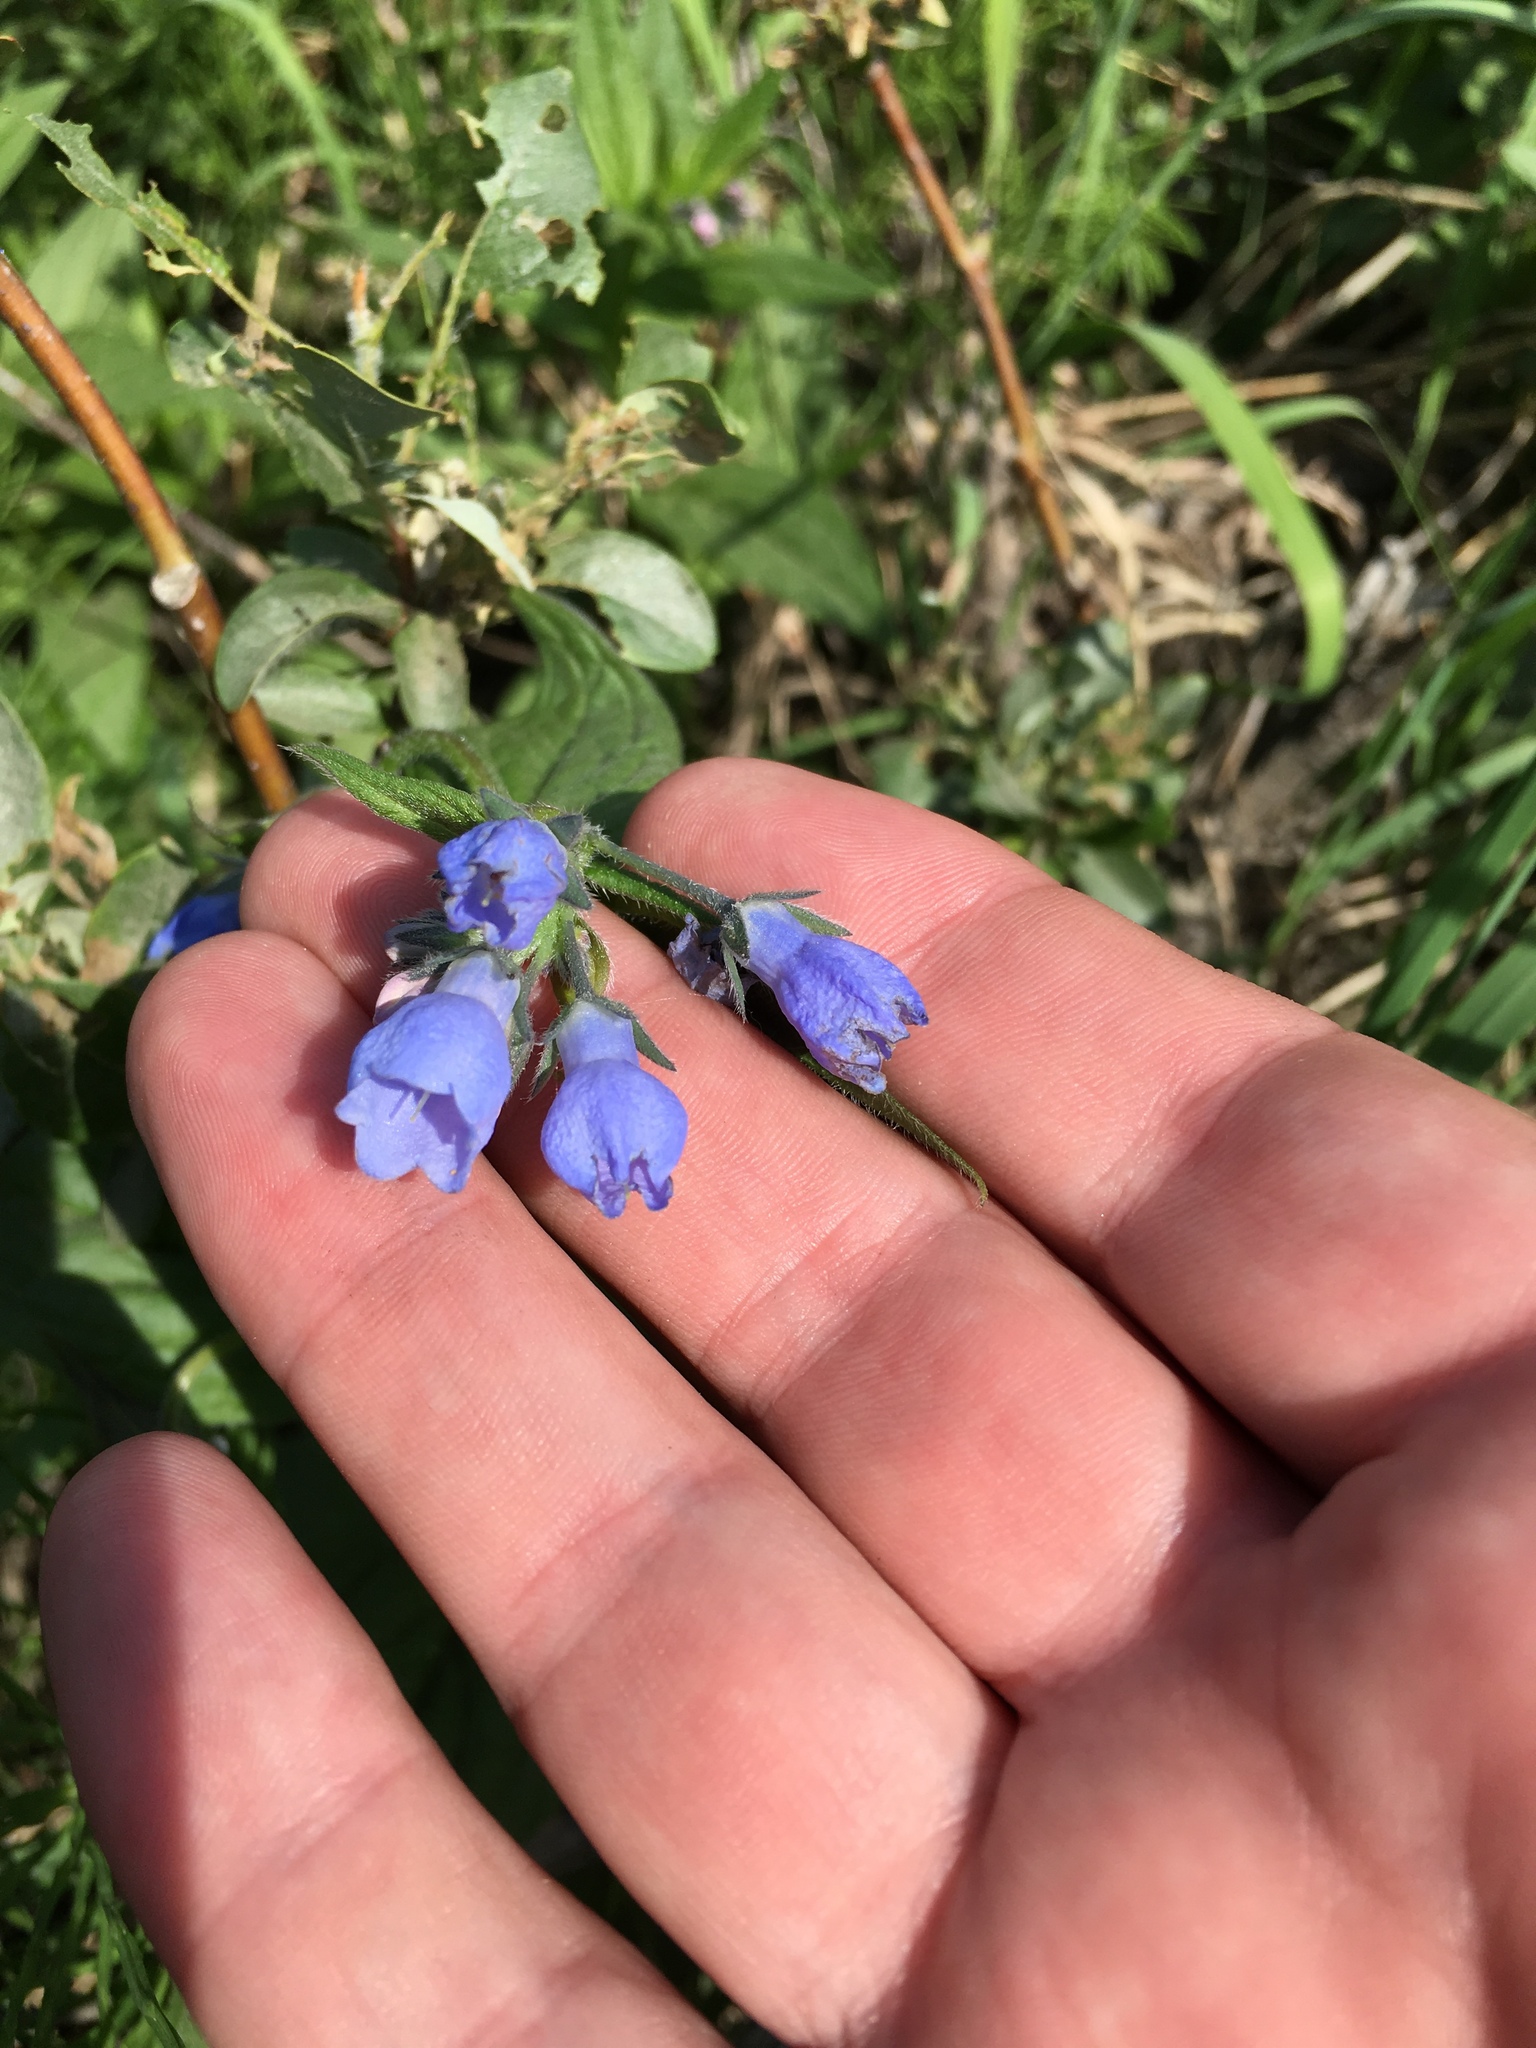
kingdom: Plantae
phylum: Tracheophyta
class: Magnoliopsida
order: Boraginales
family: Boraginaceae
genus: Mertensia
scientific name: Mertensia paniculata
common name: Panicled bluebells
